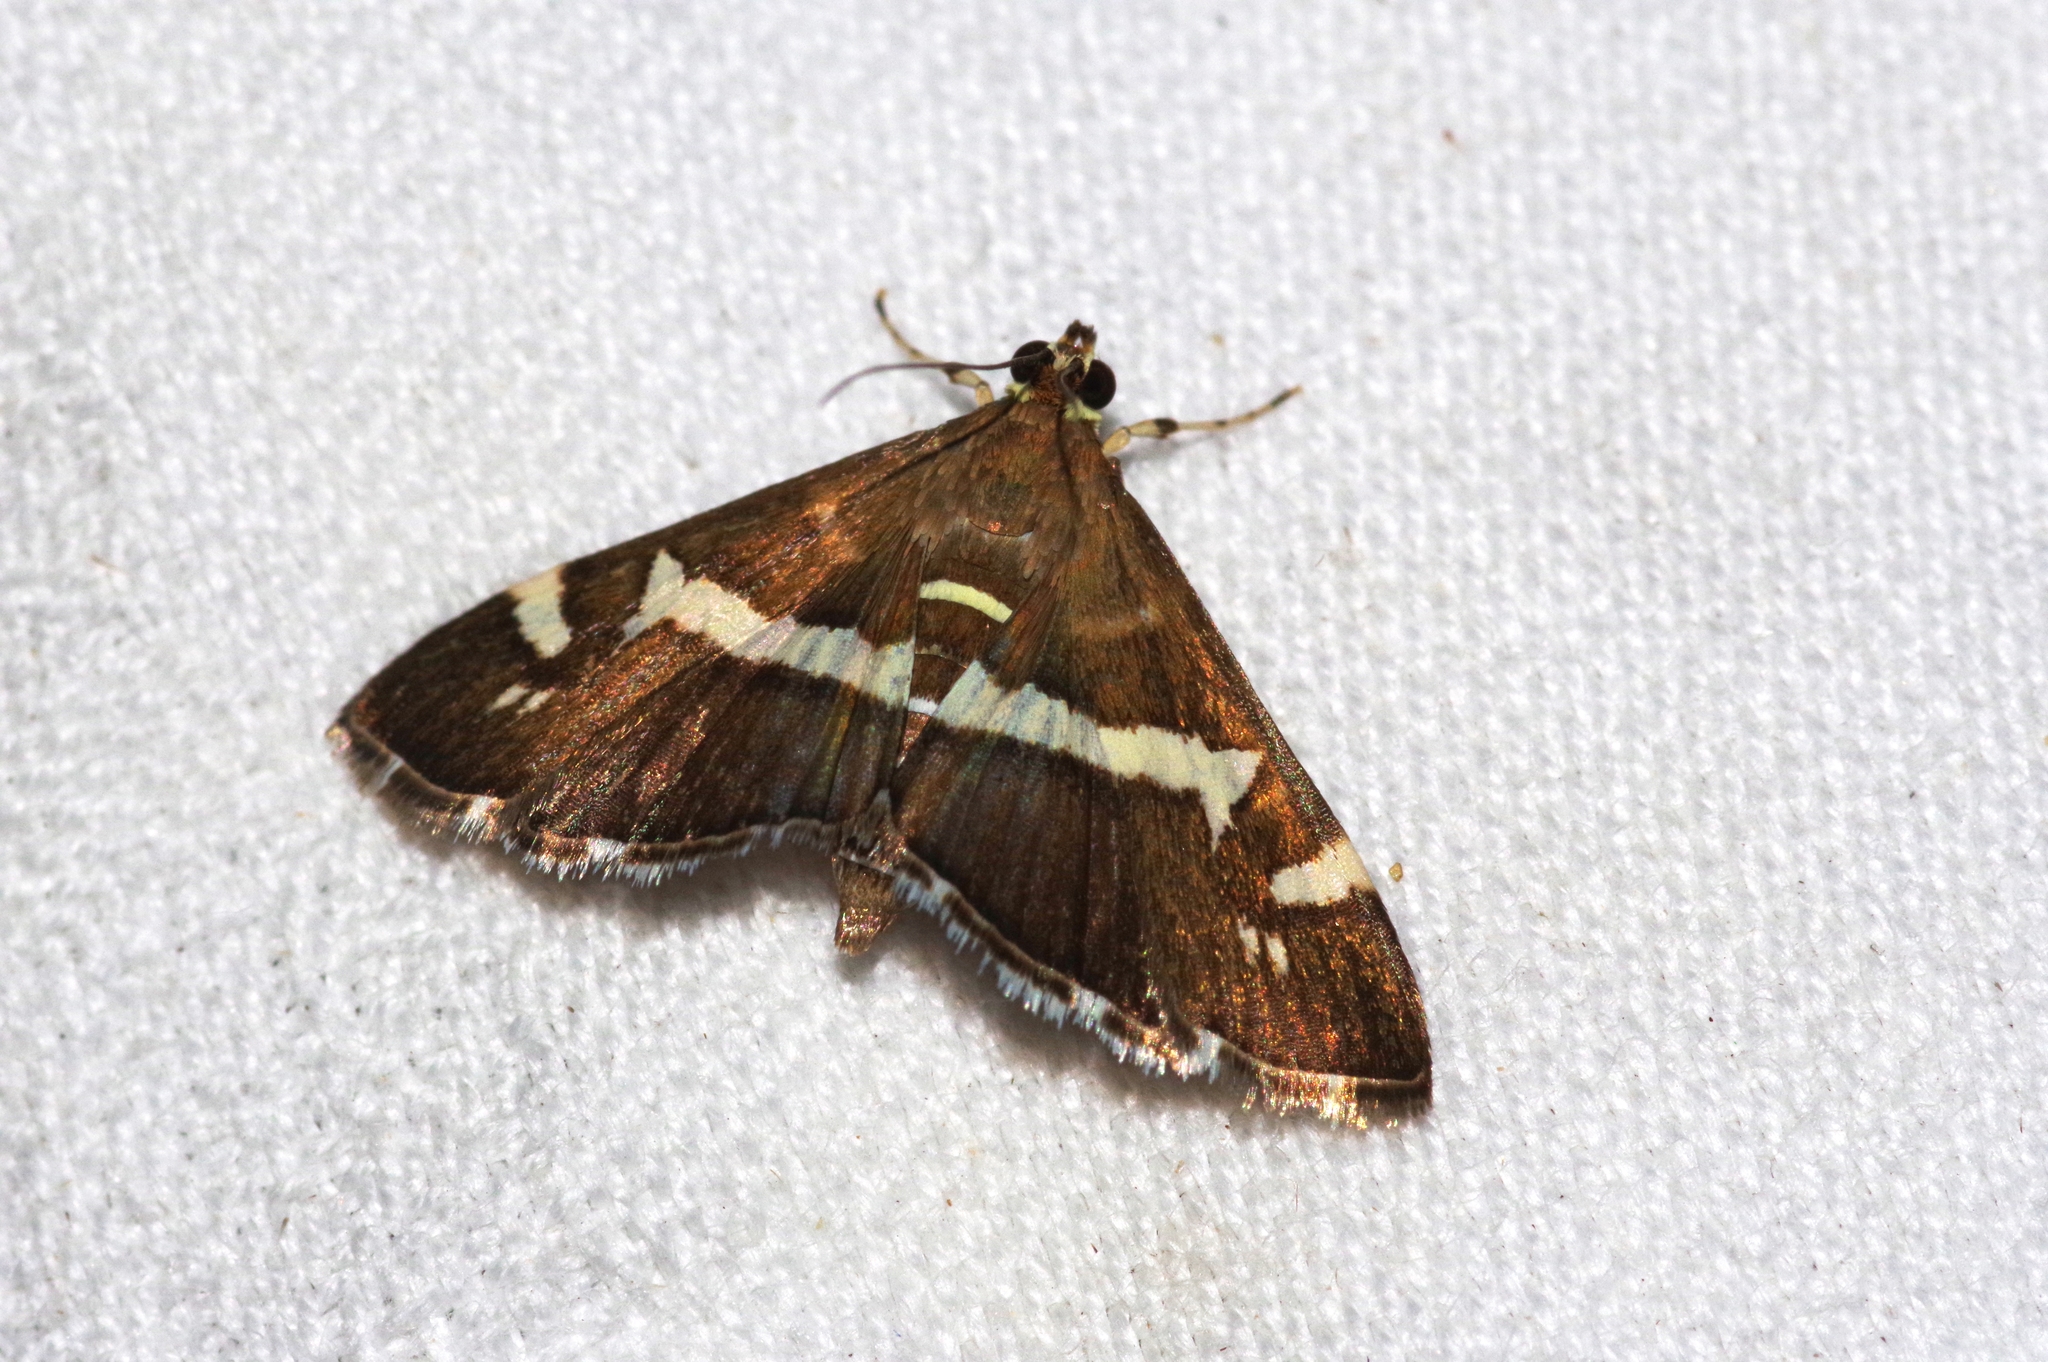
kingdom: Animalia
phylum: Arthropoda
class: Insecta
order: Lepidoptera
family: Crambidae
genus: Spoladea
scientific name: Spoladea recurvalis
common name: Beet webworm moth
